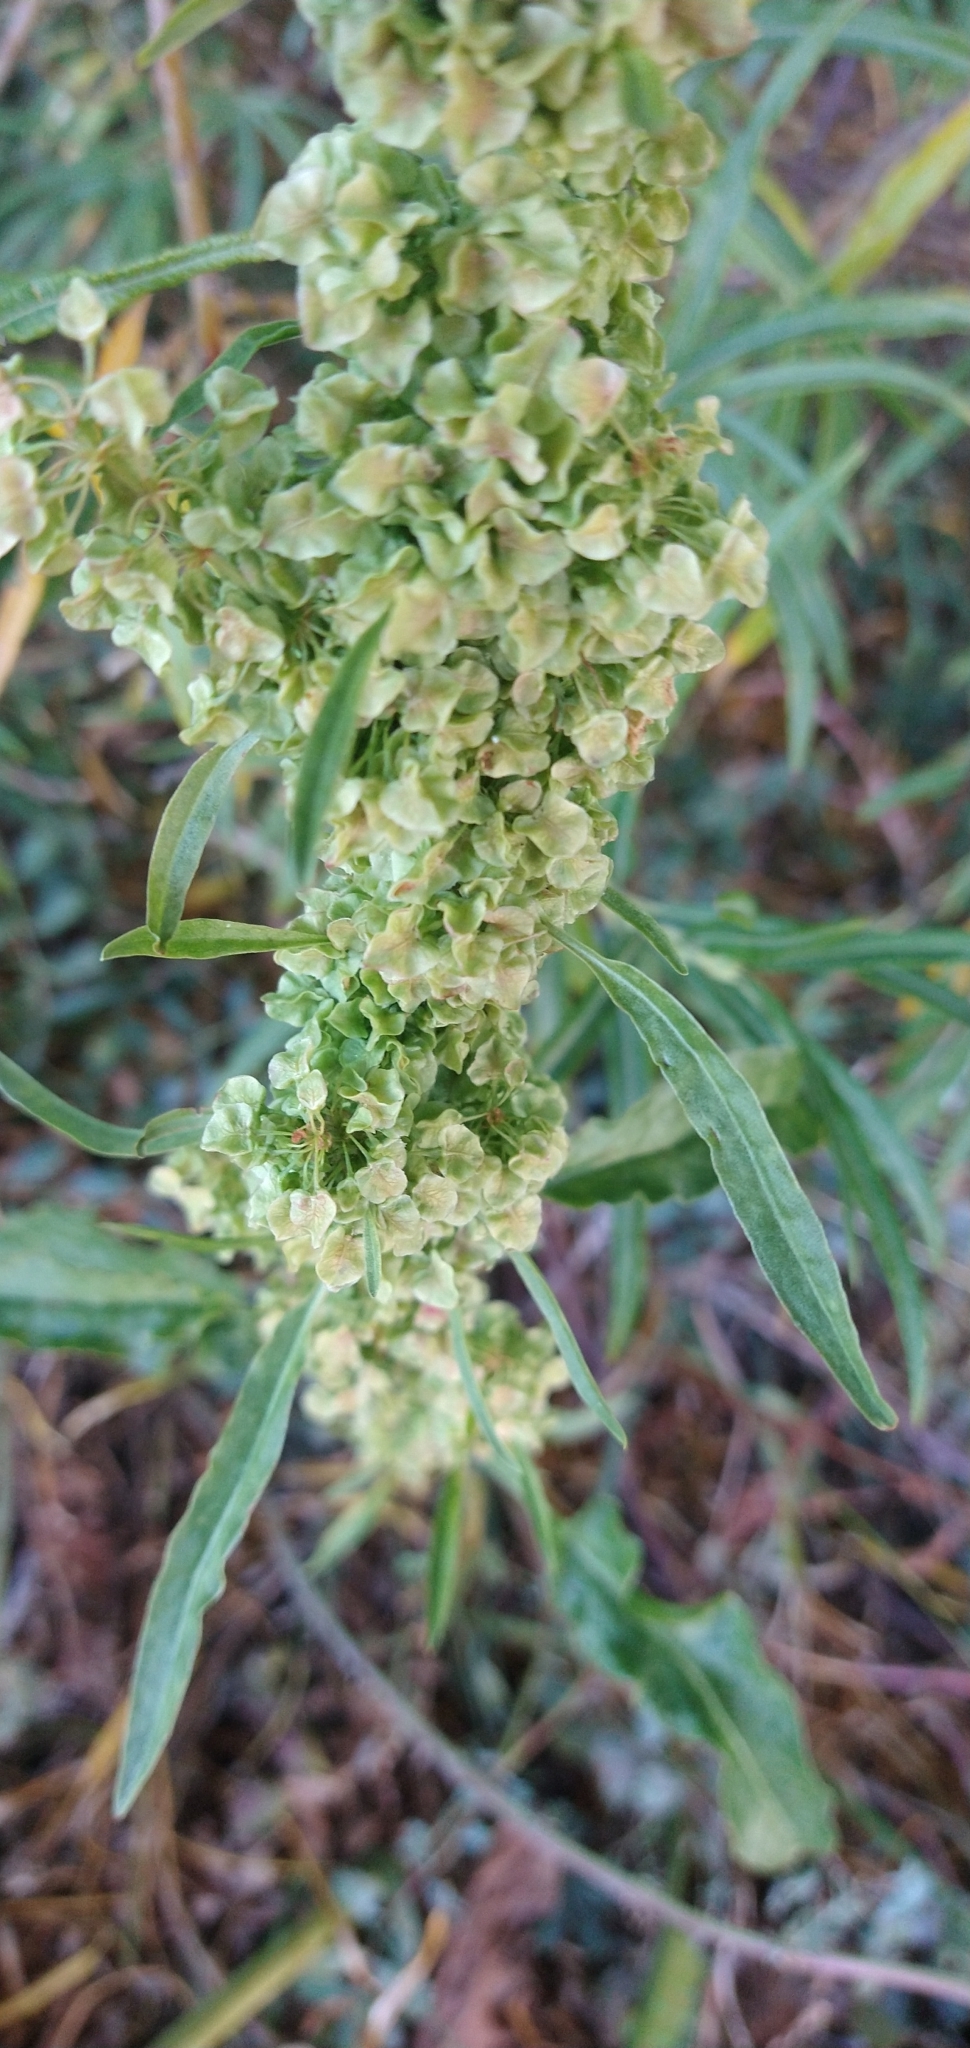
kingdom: Plantae
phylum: Tracheophyta
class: Magnoliopsida
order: Caryophyllales
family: Polygonaceae
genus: Rumex
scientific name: Rumex crispus
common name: Curled dock
